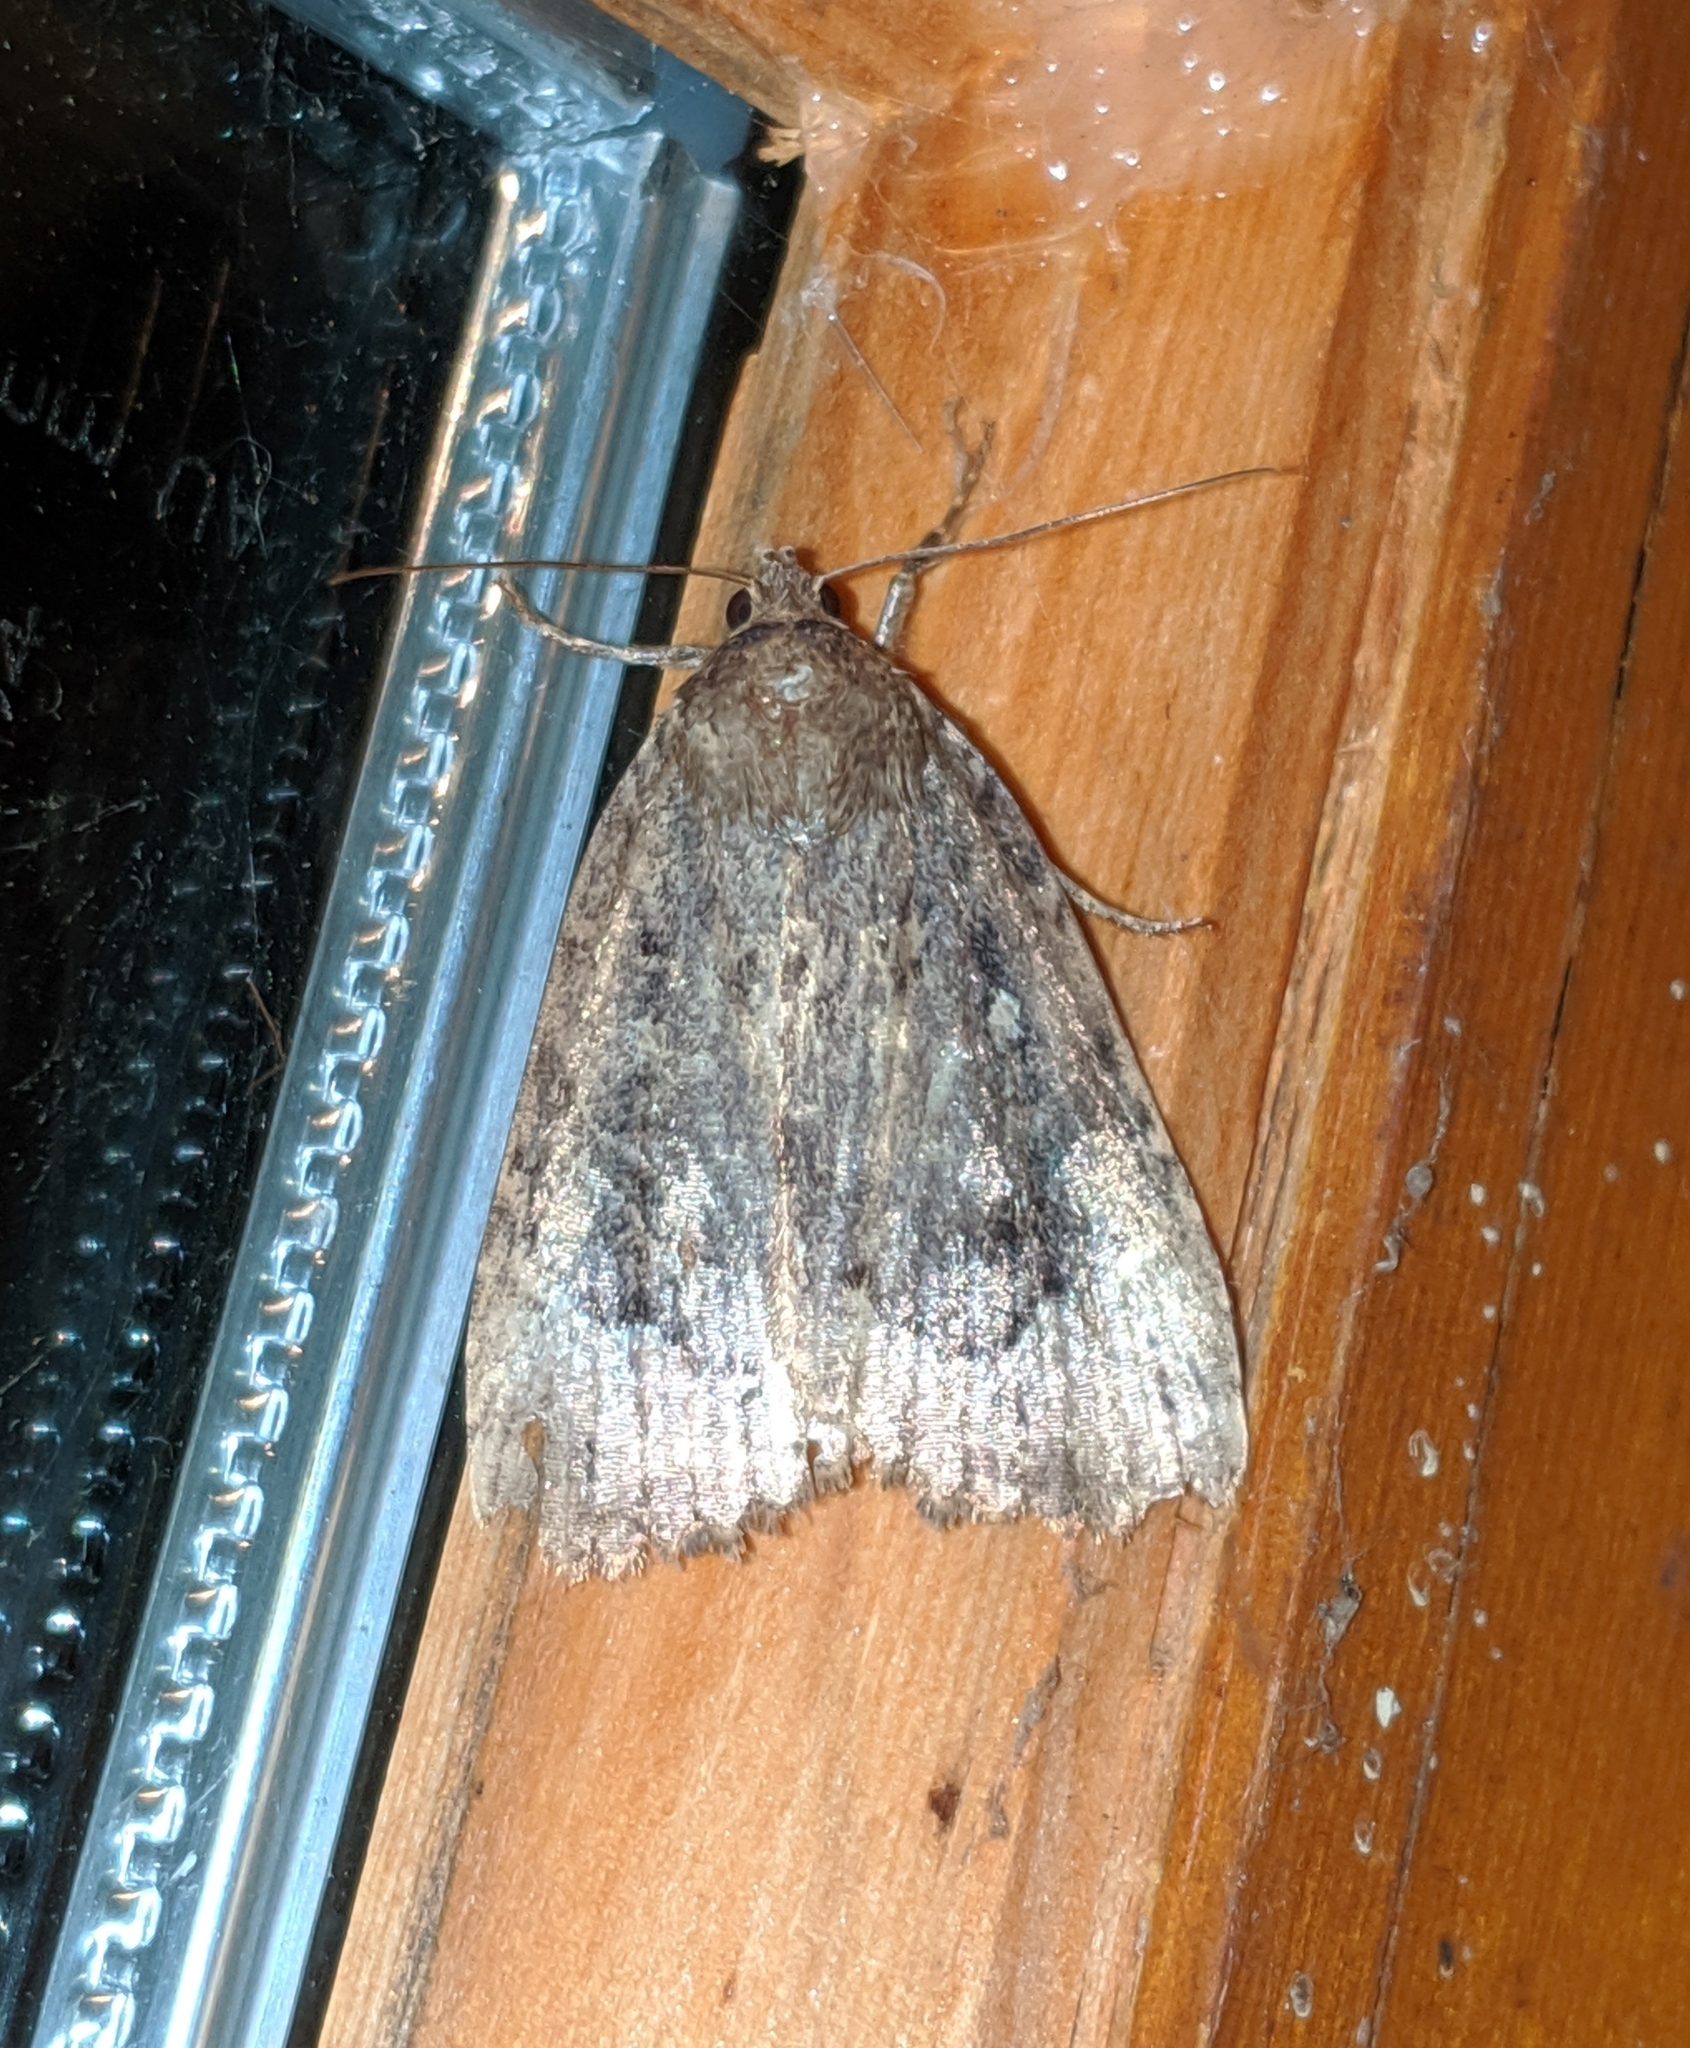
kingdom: Animalia
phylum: Arthropoda
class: Insecta
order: Lepidoptera
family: Noctuidae
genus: Amphipyra
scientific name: Amphipyra pyramidoides
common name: American copper underwing
